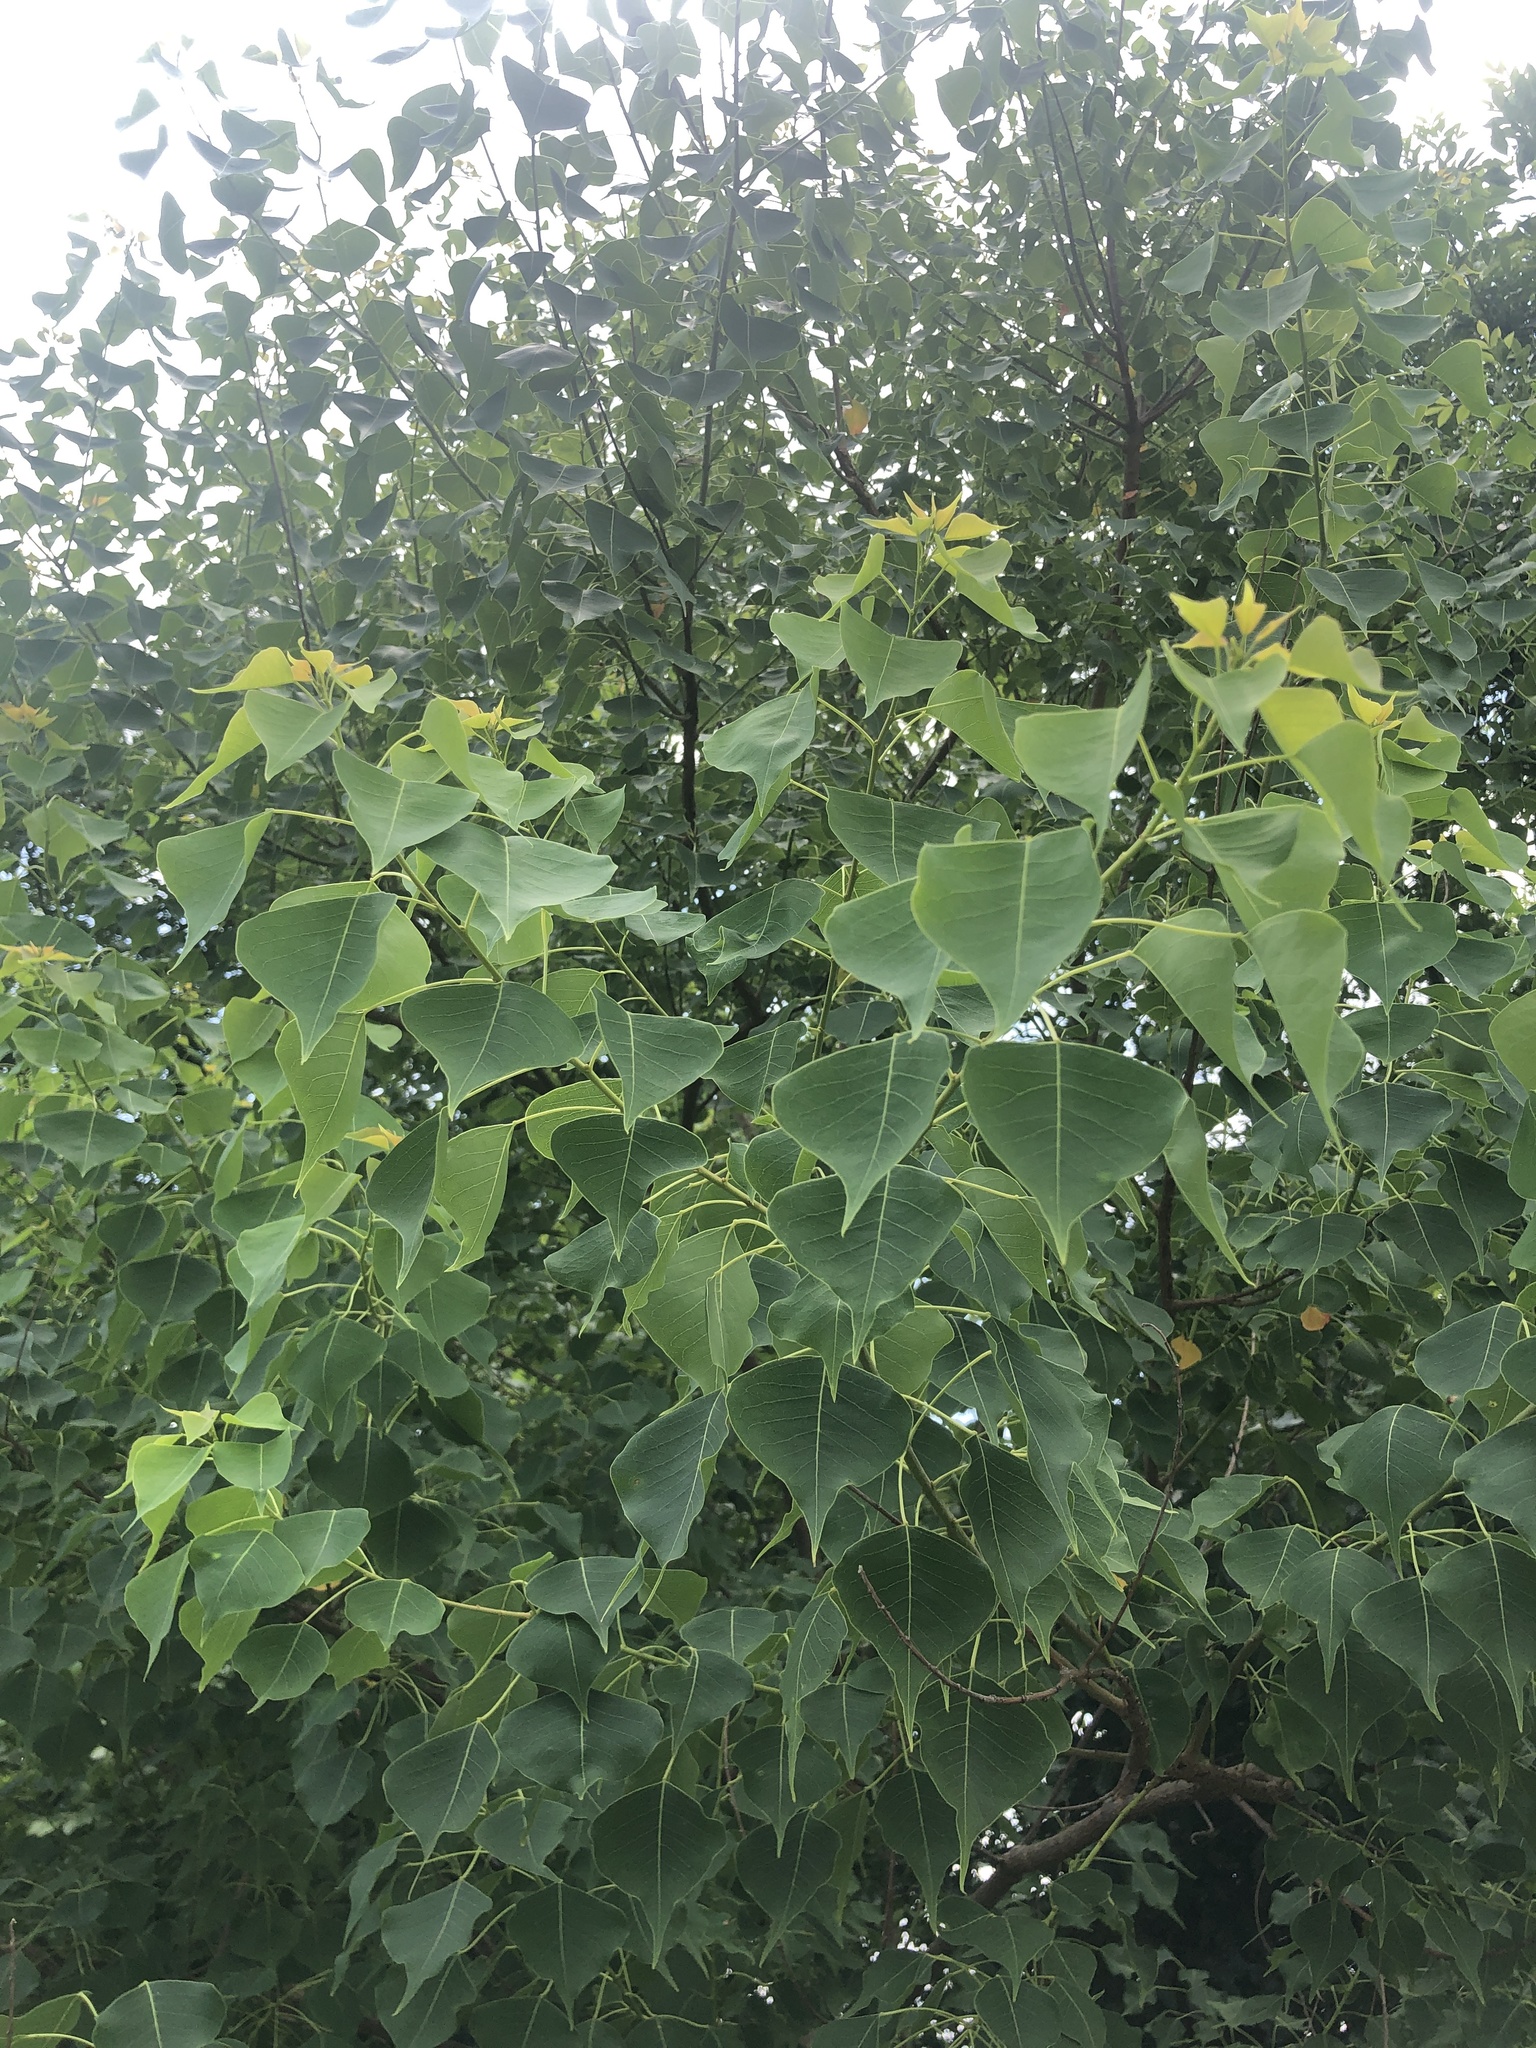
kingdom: Plantae
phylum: Tracheophyta
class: Magnoliopsida
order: Malpighiales
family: Euphorbiaceae
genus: Triadica
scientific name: Triadica sebifera
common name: Chinese tallow
